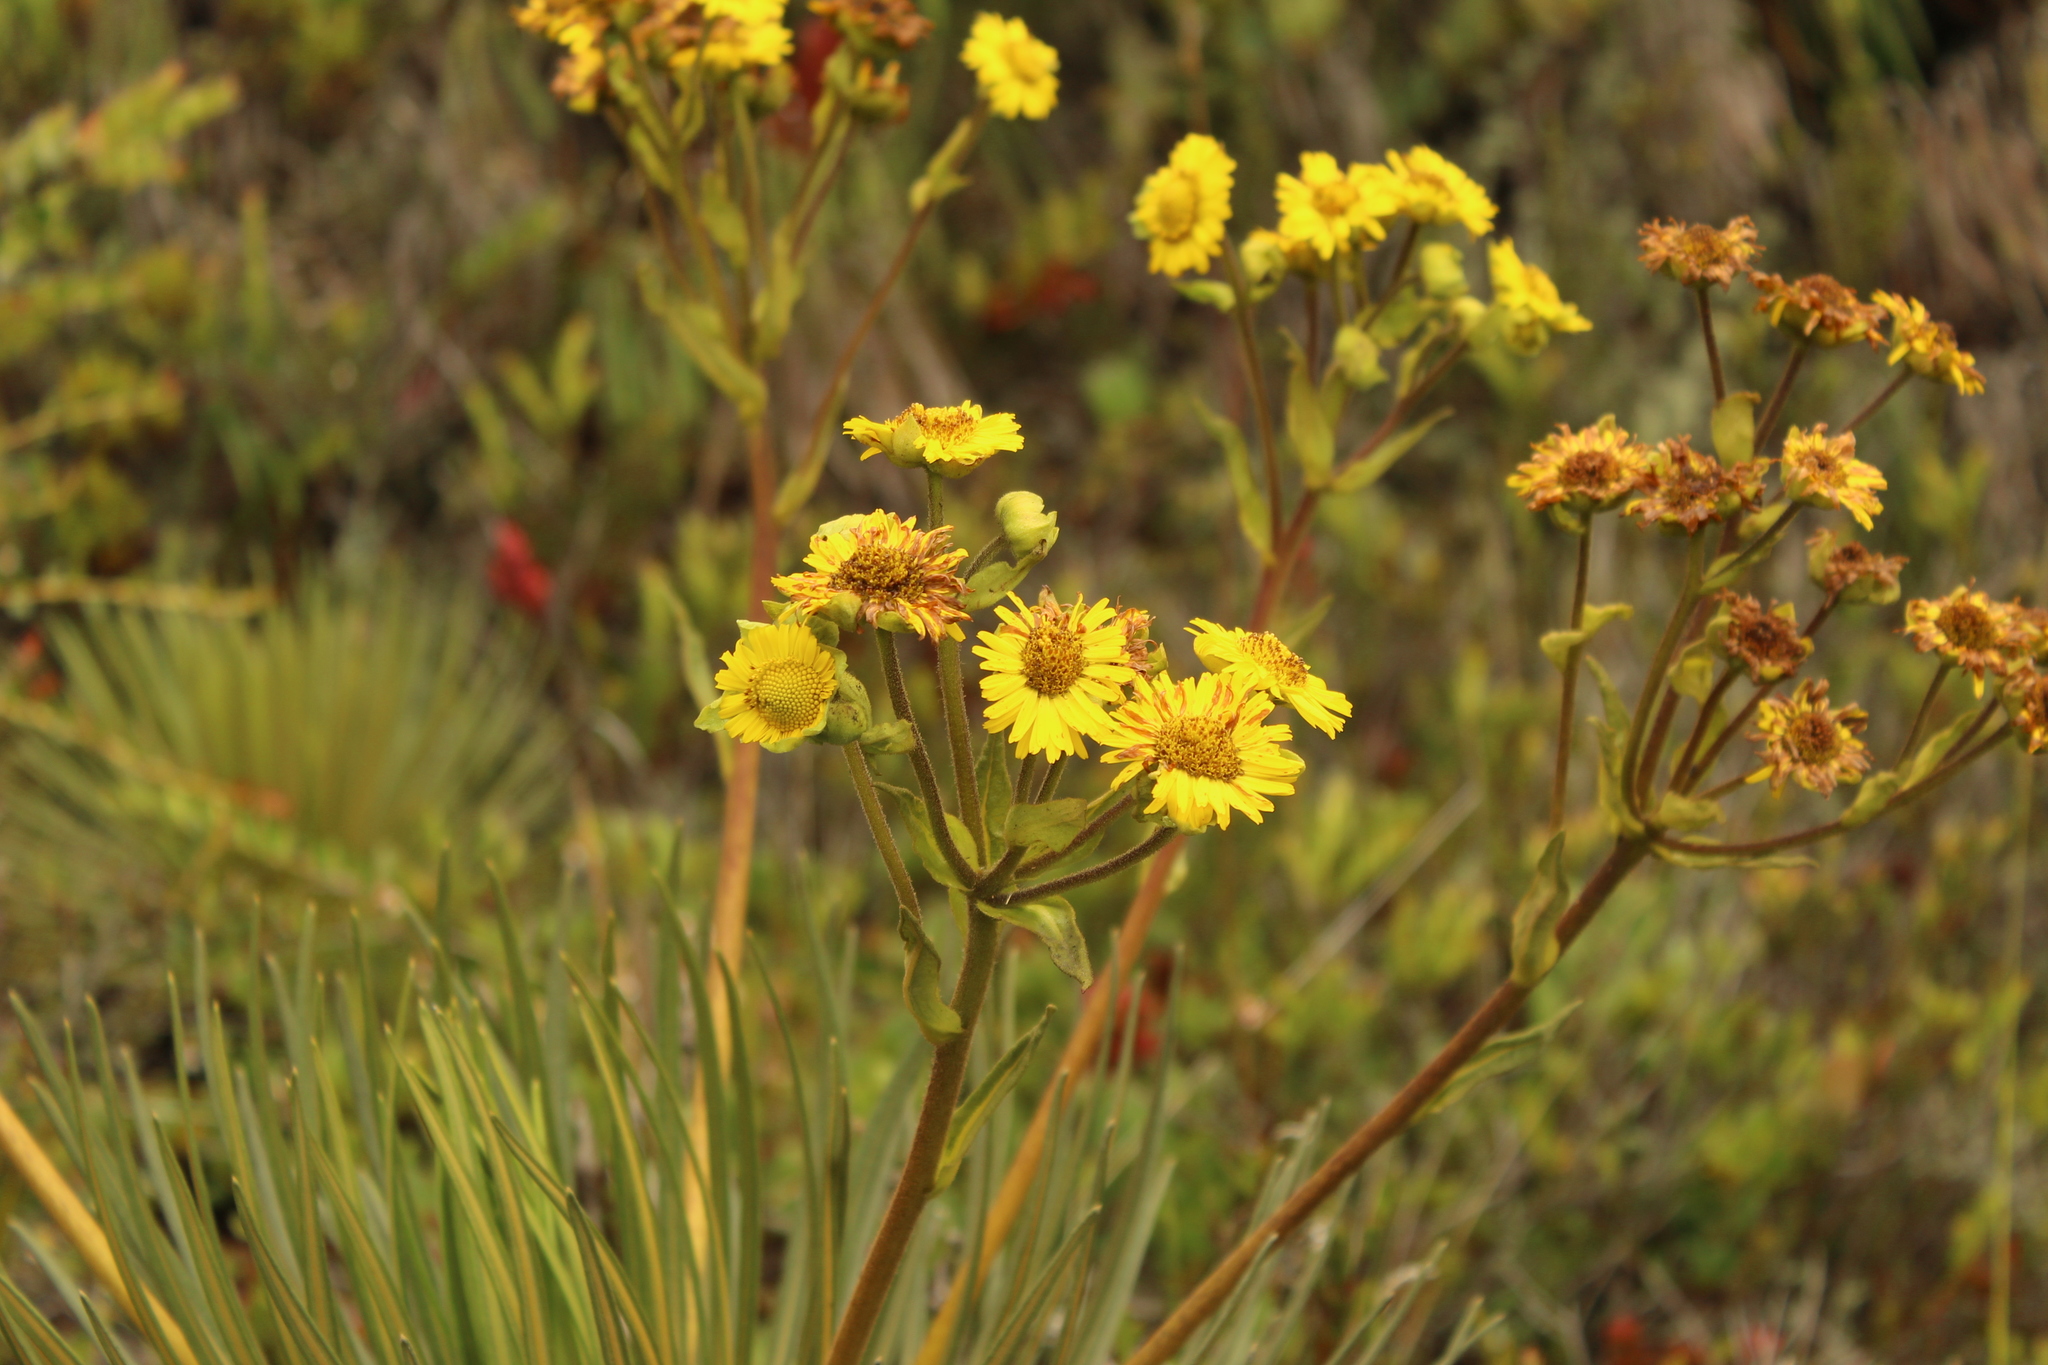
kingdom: Plantae
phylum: Tracheophyta
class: Magnoliopsida
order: Asterales
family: Asteraceae
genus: Espeletia
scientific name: Espeletia glandulosa
